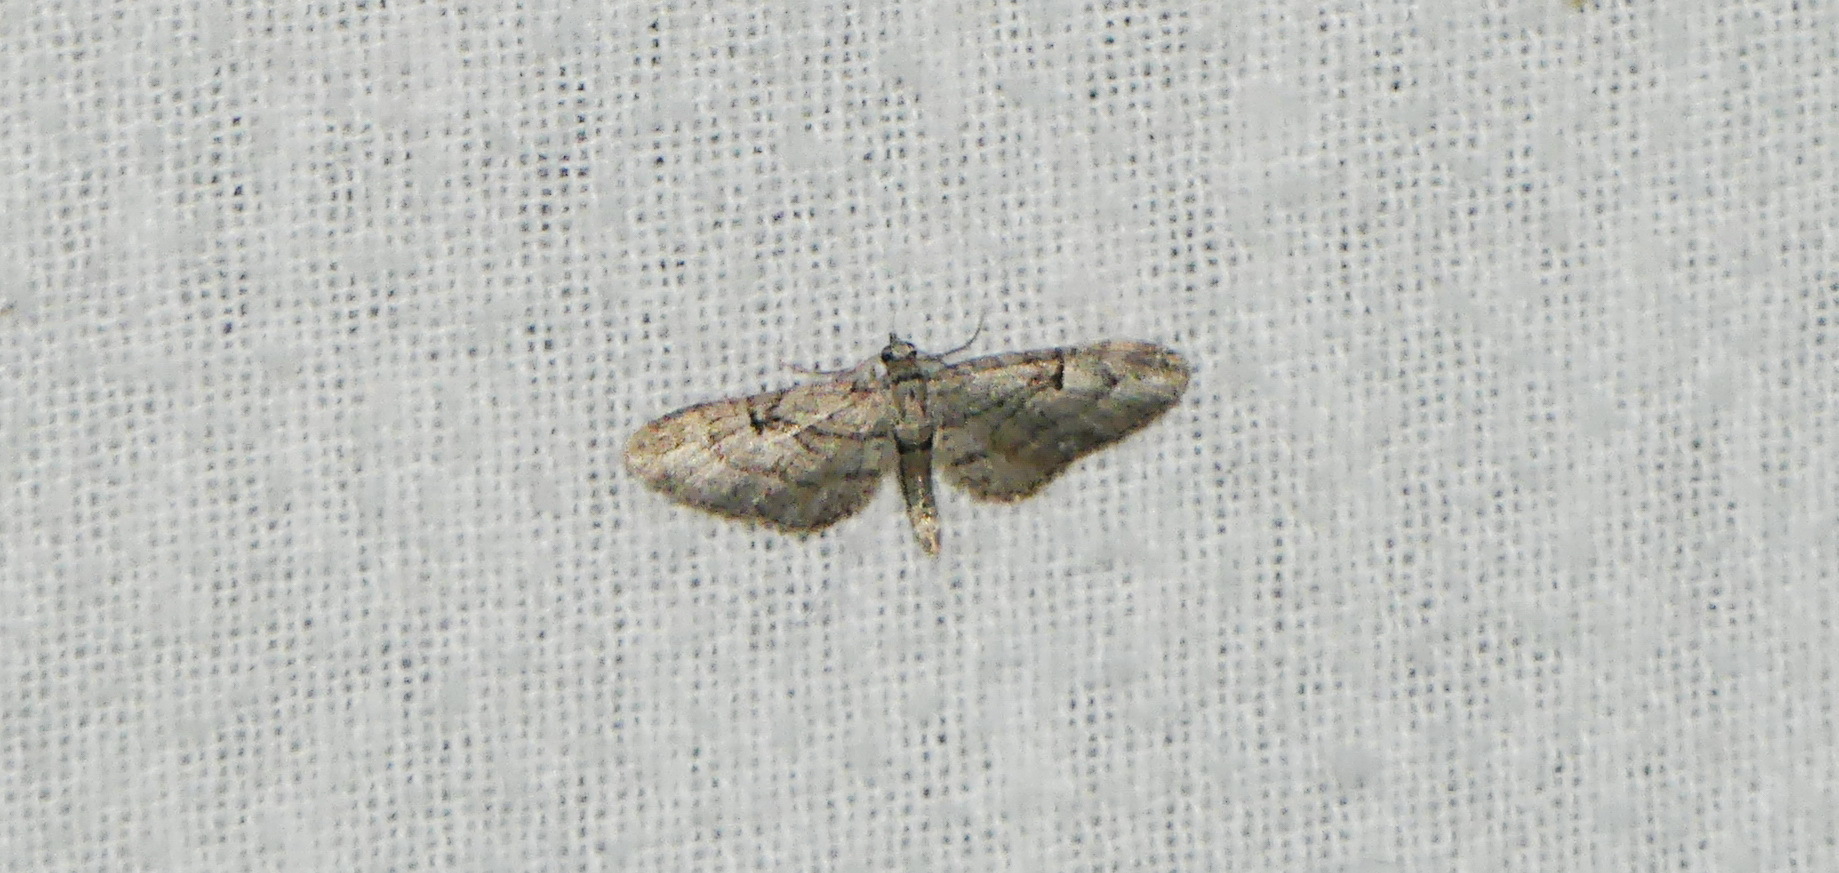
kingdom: Animalia
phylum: Arthropoda
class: Insecta
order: Lepidoptera
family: Geometridae
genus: Eupithecia
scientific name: Eupithecia interruptofasciata
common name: Juniper looper moth
